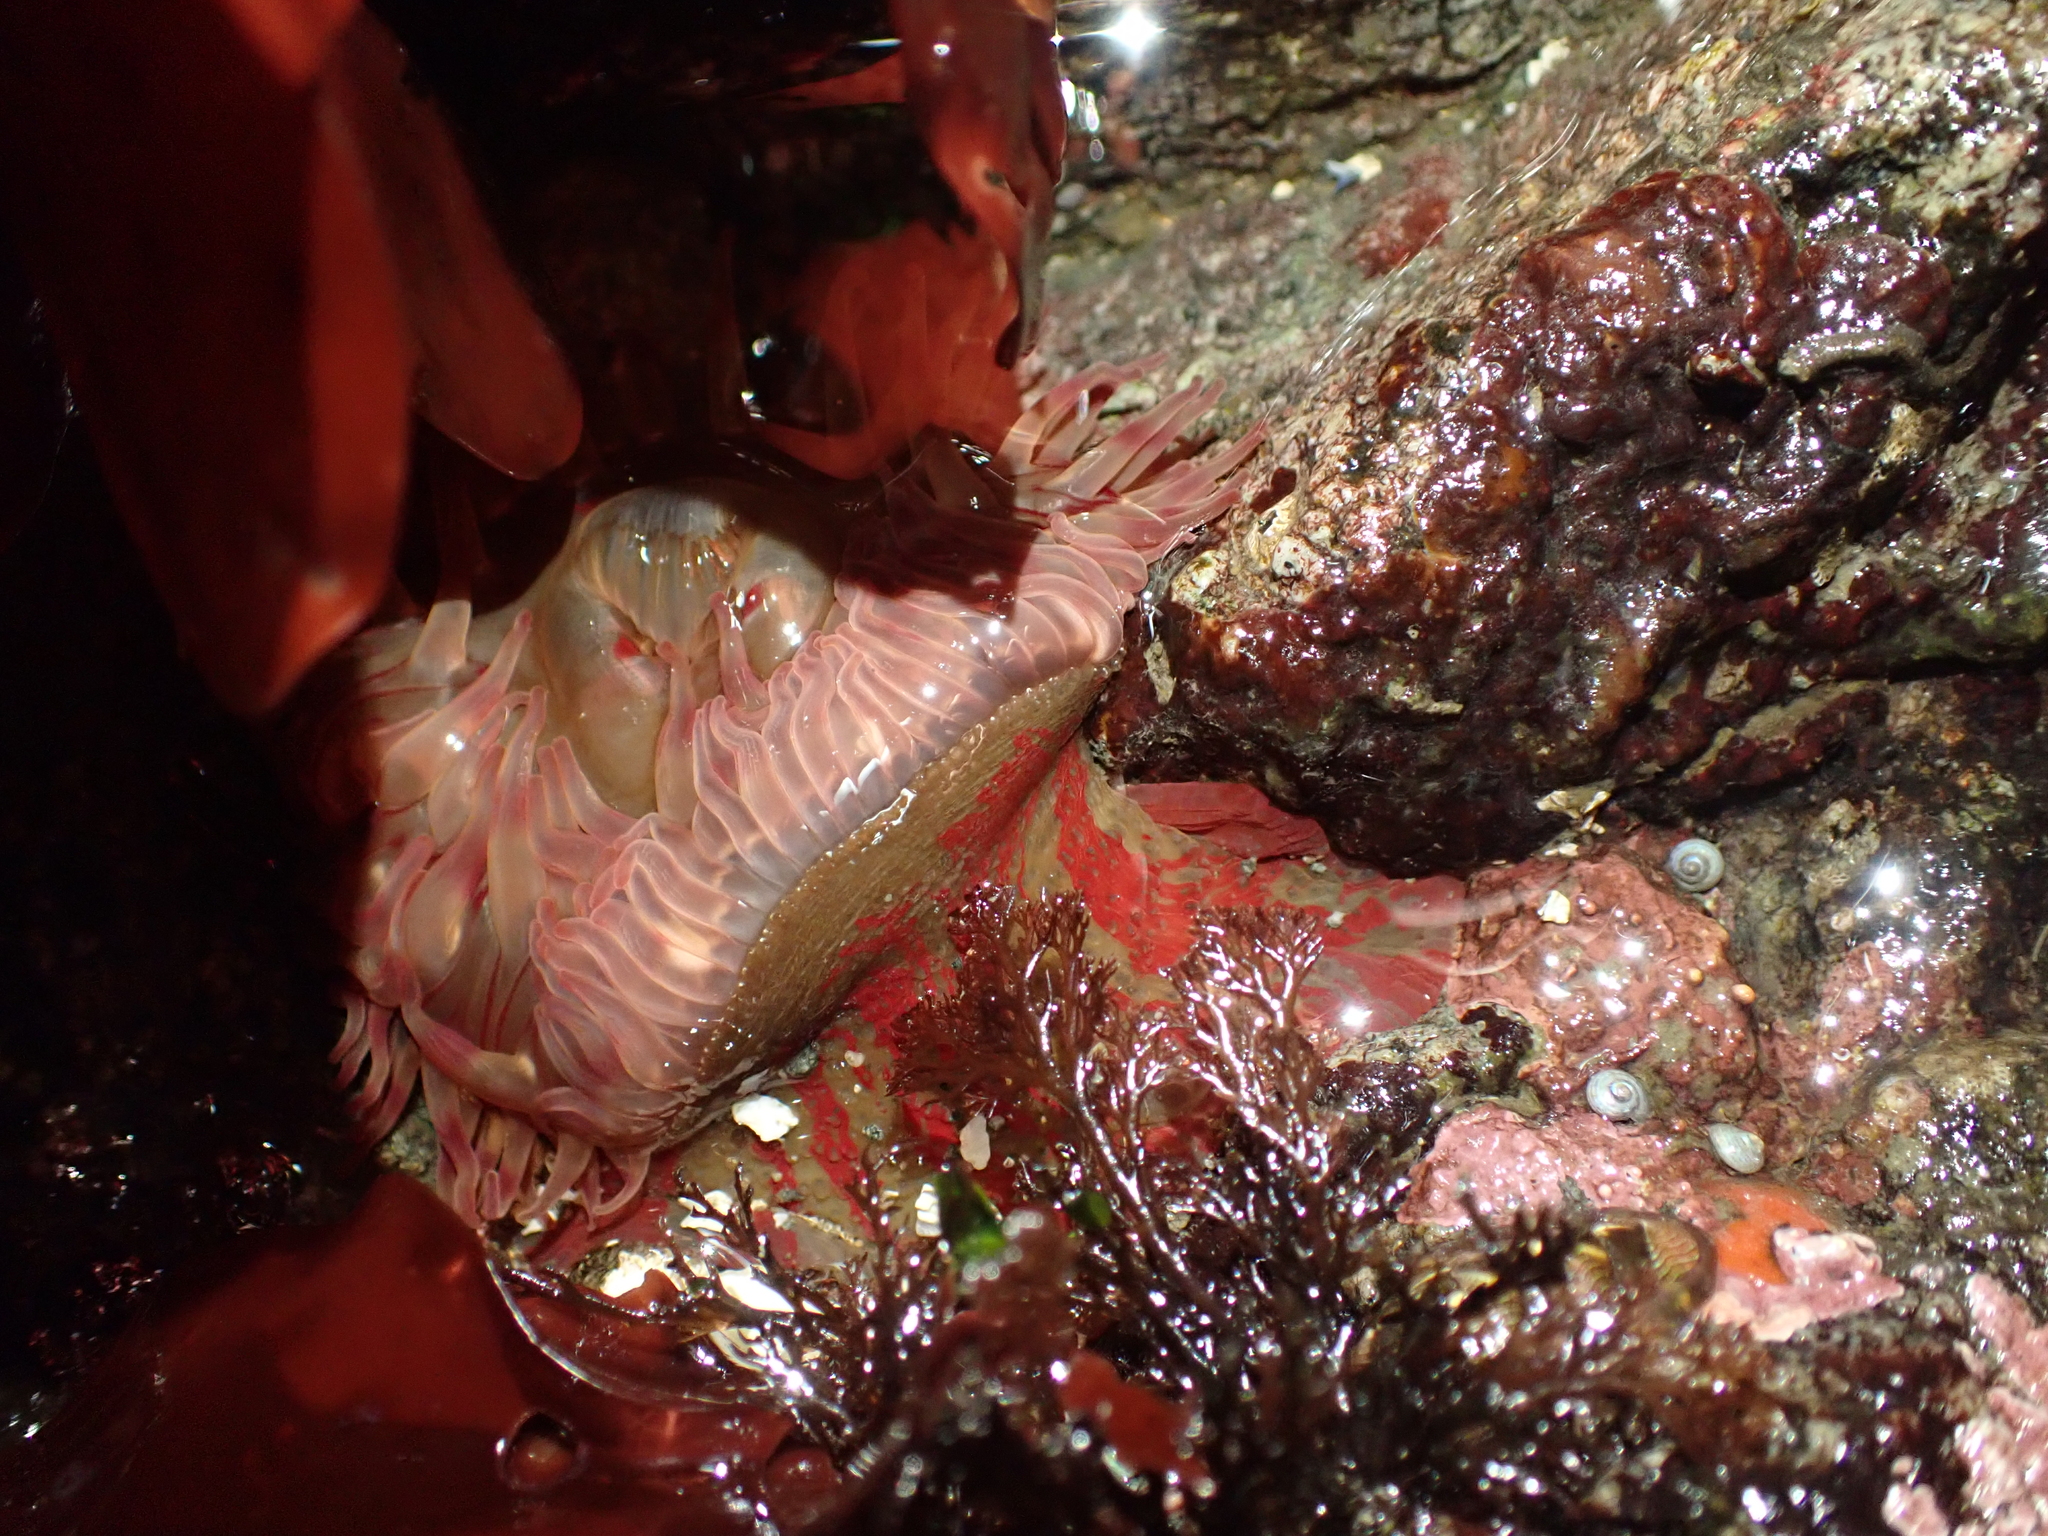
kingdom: Animalia
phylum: Cnidaria
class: Anthozoa
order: Actiniaria
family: Actiniidae
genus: Urticina
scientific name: Urticina grebelnyi
